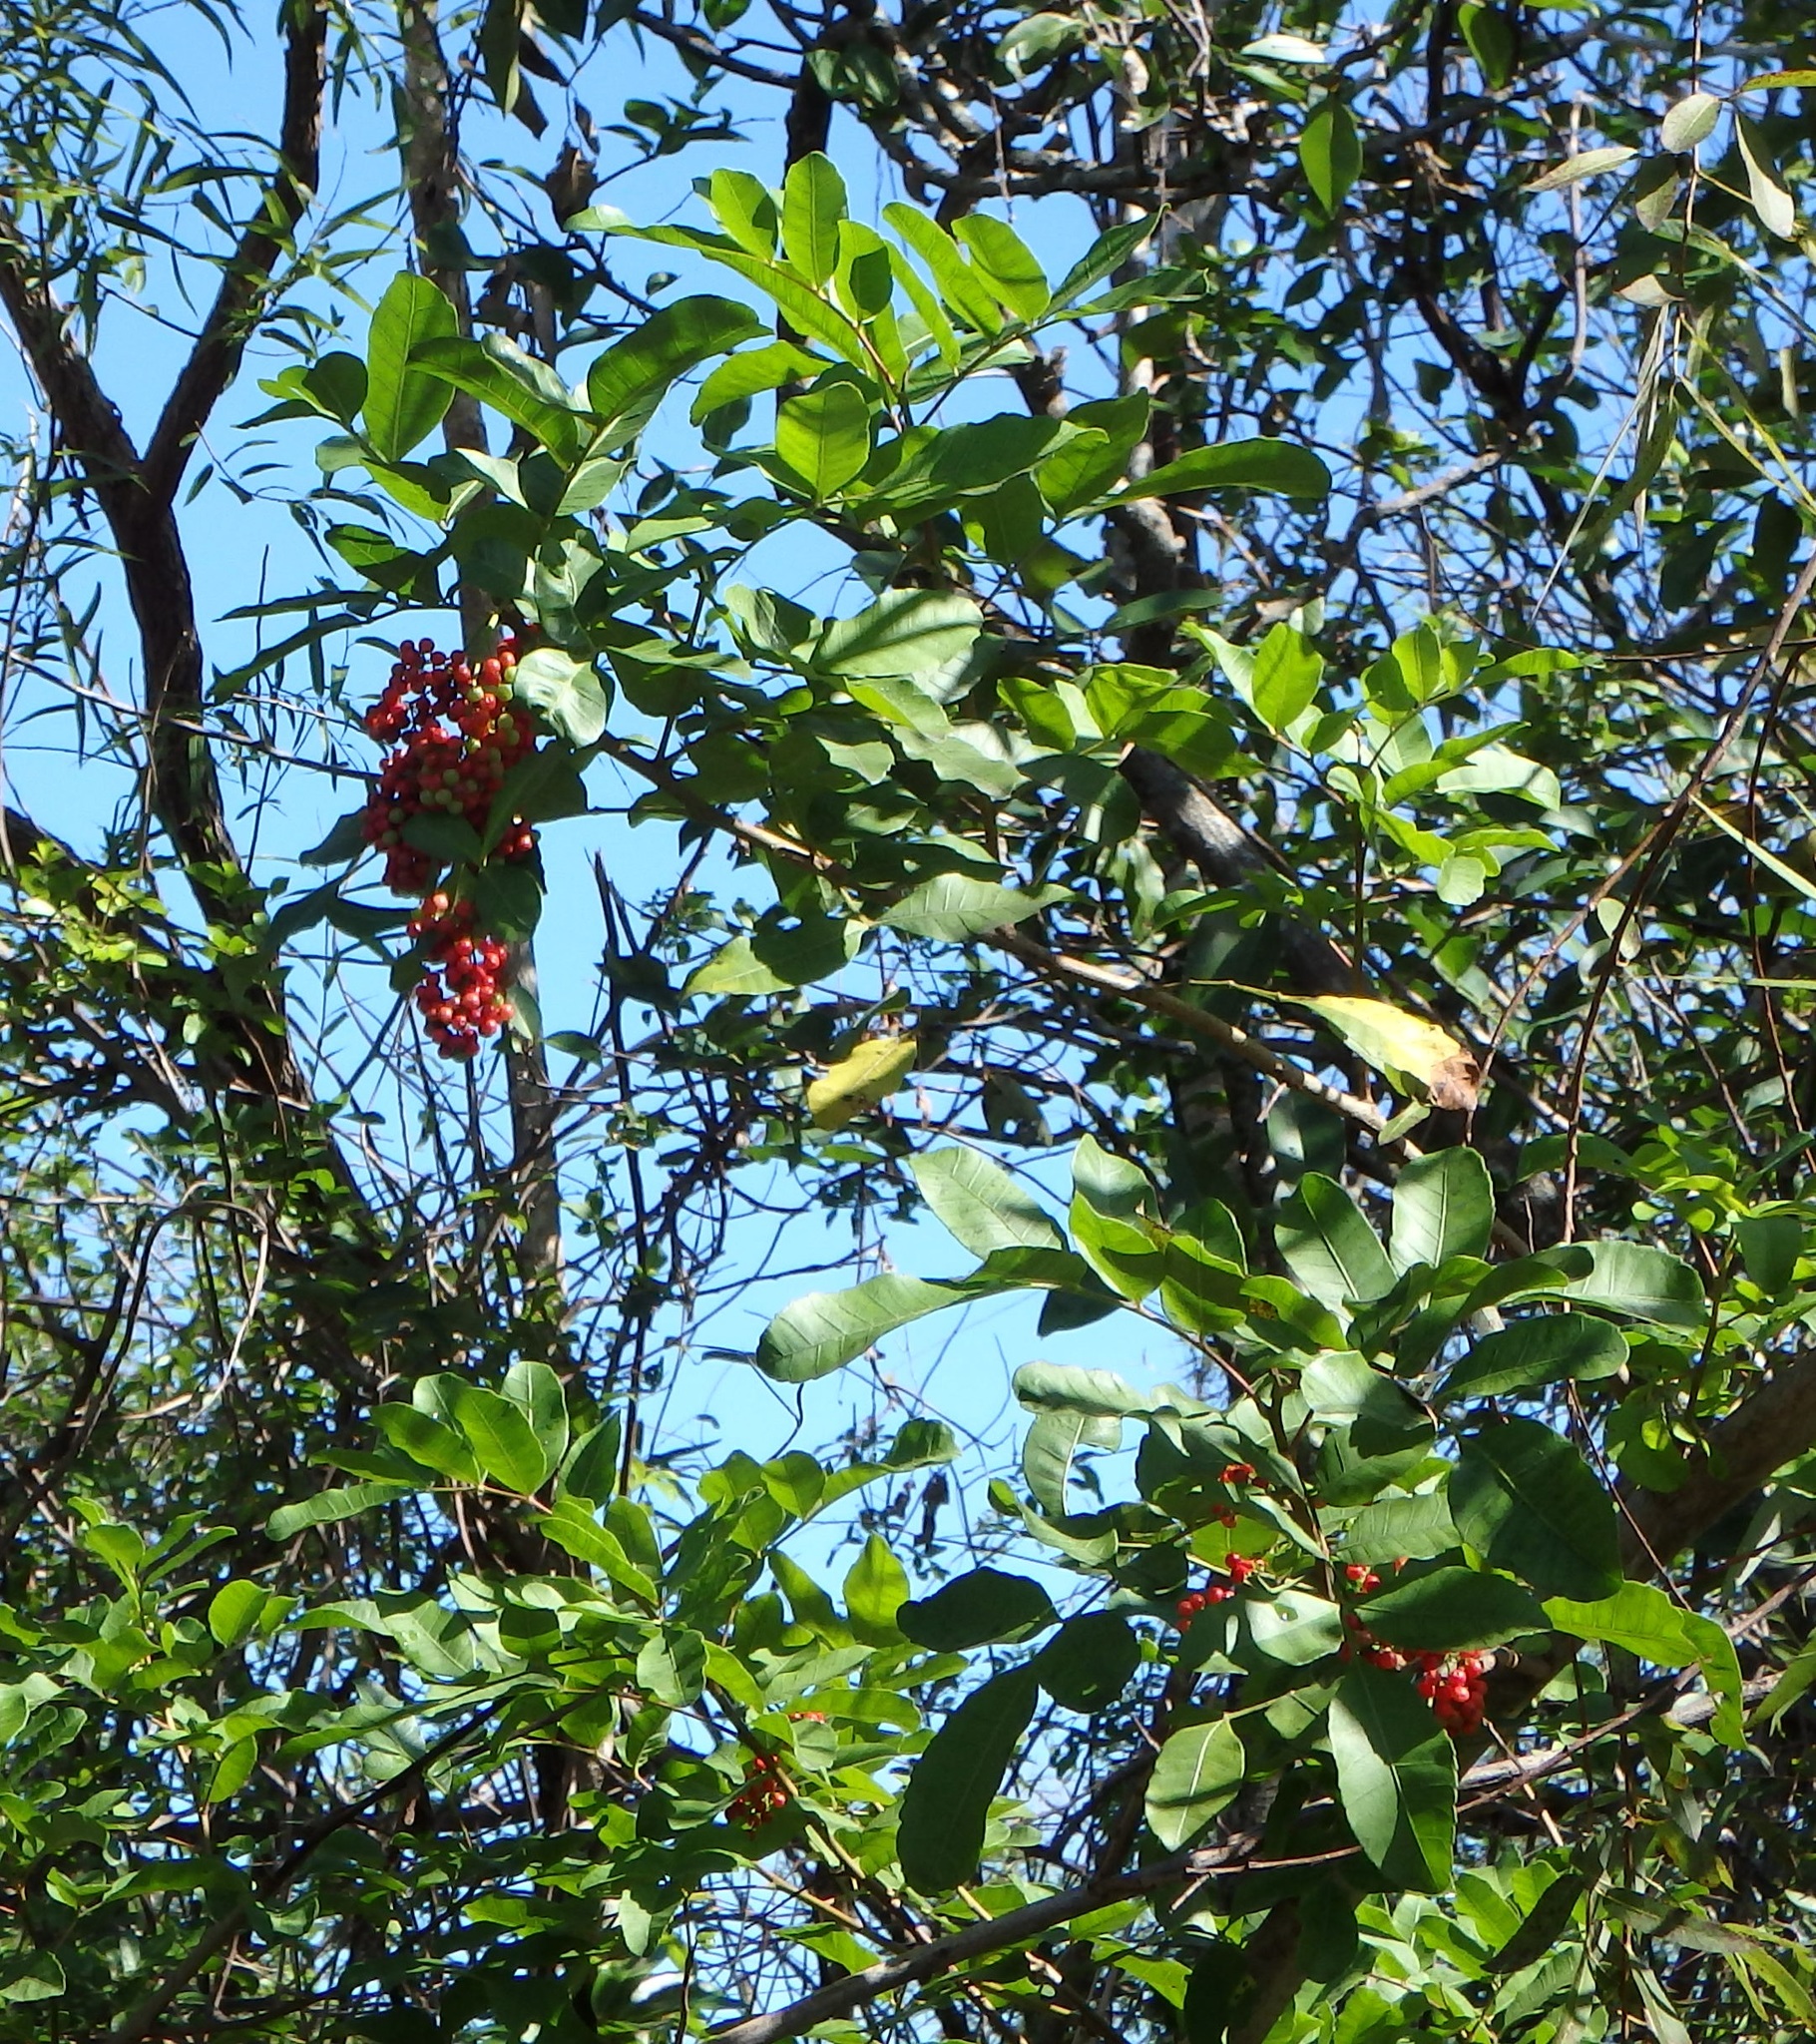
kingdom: Plantae
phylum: Tracheophyta
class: Magnoliopsida
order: Sapindales
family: Anacardiaceae
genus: Schinus
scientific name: Schinus terebinthifolia
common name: Brazilian peppertree
